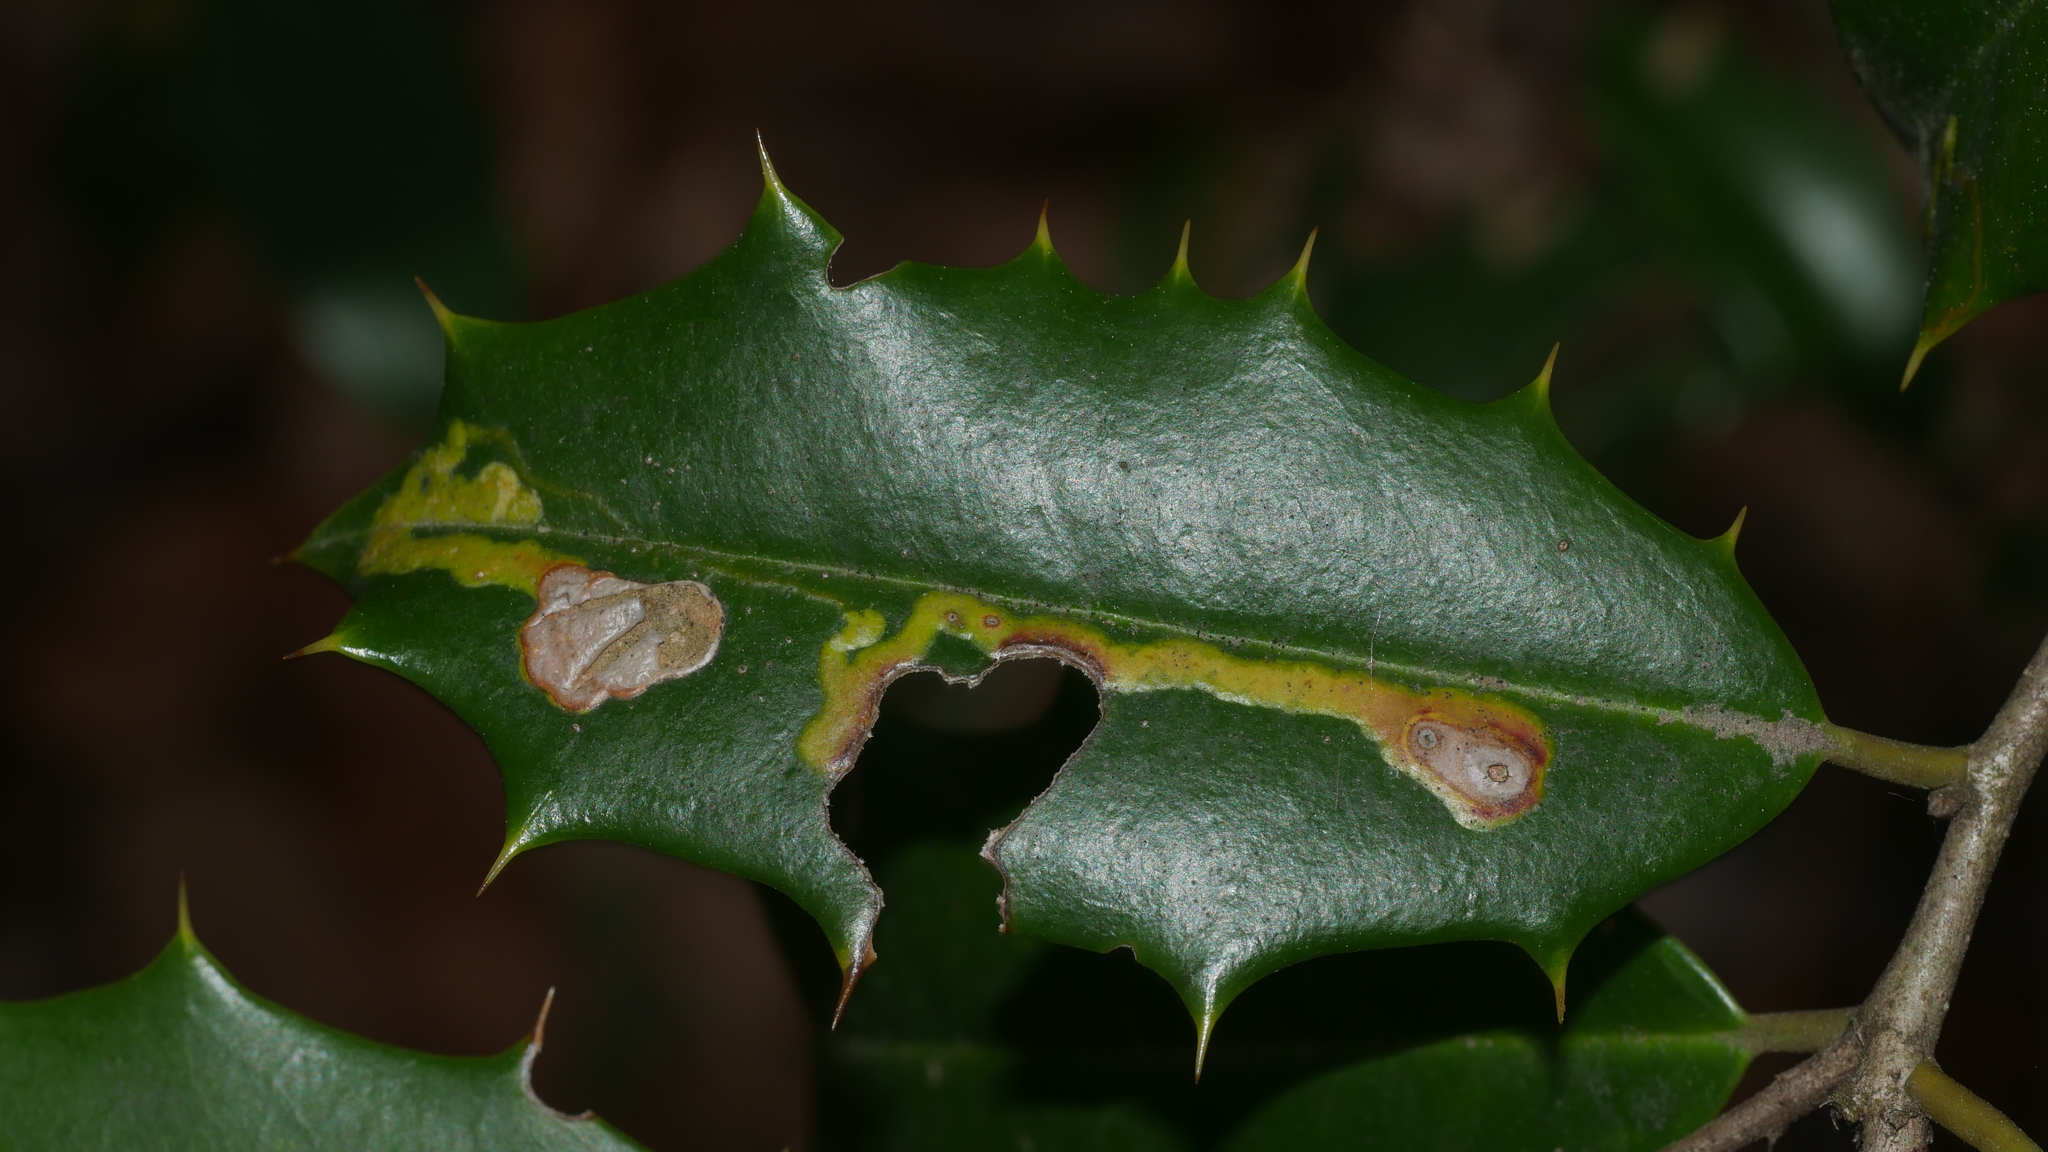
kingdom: Animalia
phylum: Arthropoda
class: Insecta
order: Diptera
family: Agromyzidae
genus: Phytomyza
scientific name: Phytomyza ilicicola
